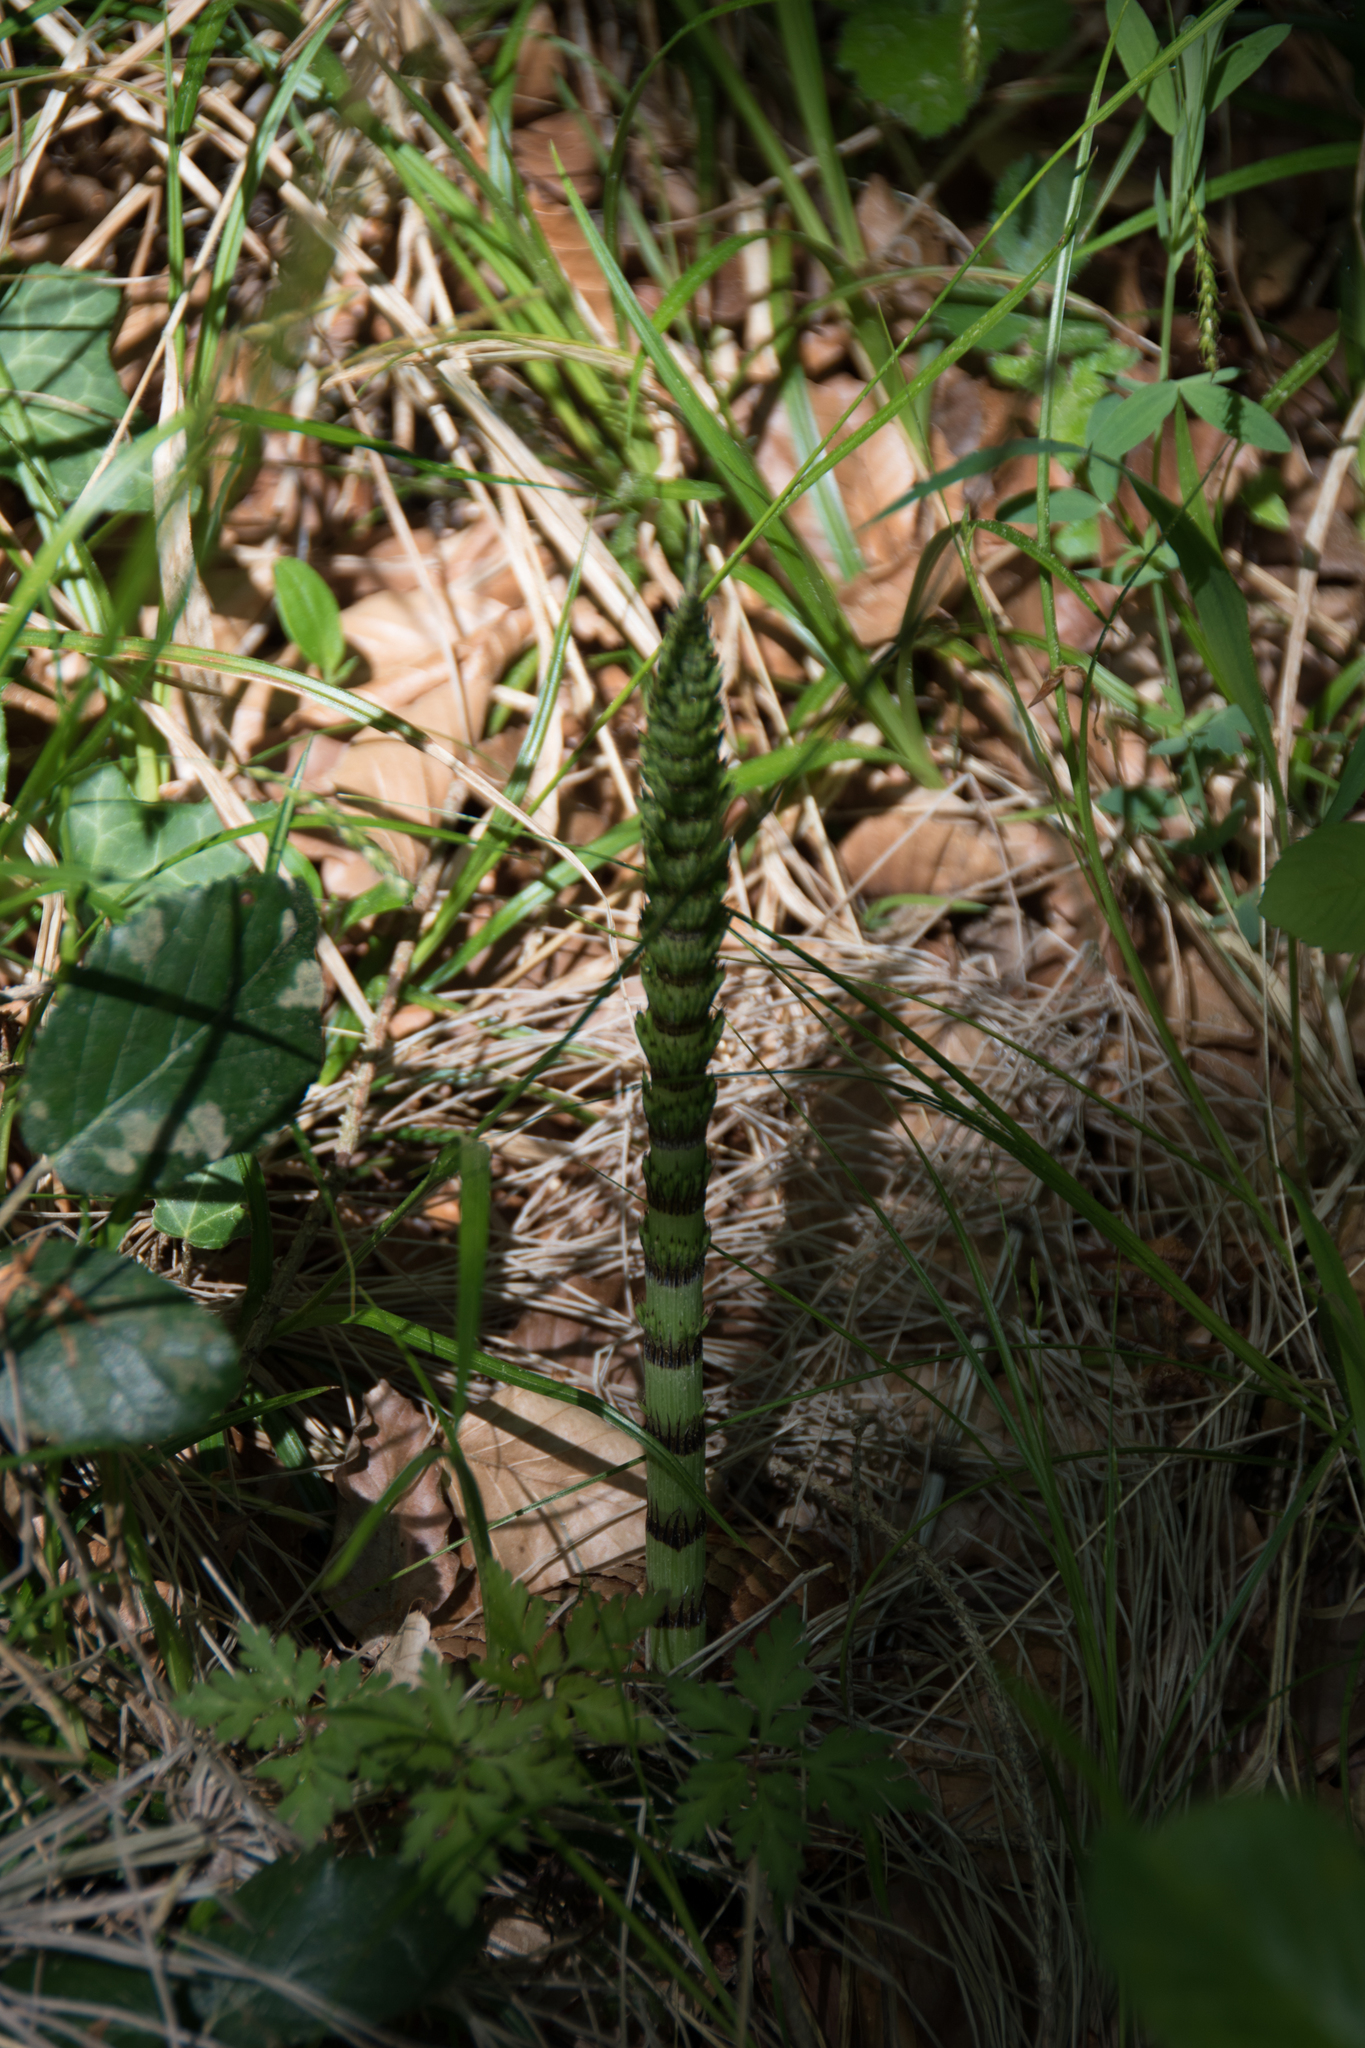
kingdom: Plantae
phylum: Tracheophyta
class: Polypodiopsida
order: Equisetales
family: Equisetaceae
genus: Equisetum
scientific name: Equisetum telmateia
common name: Great horsetail
